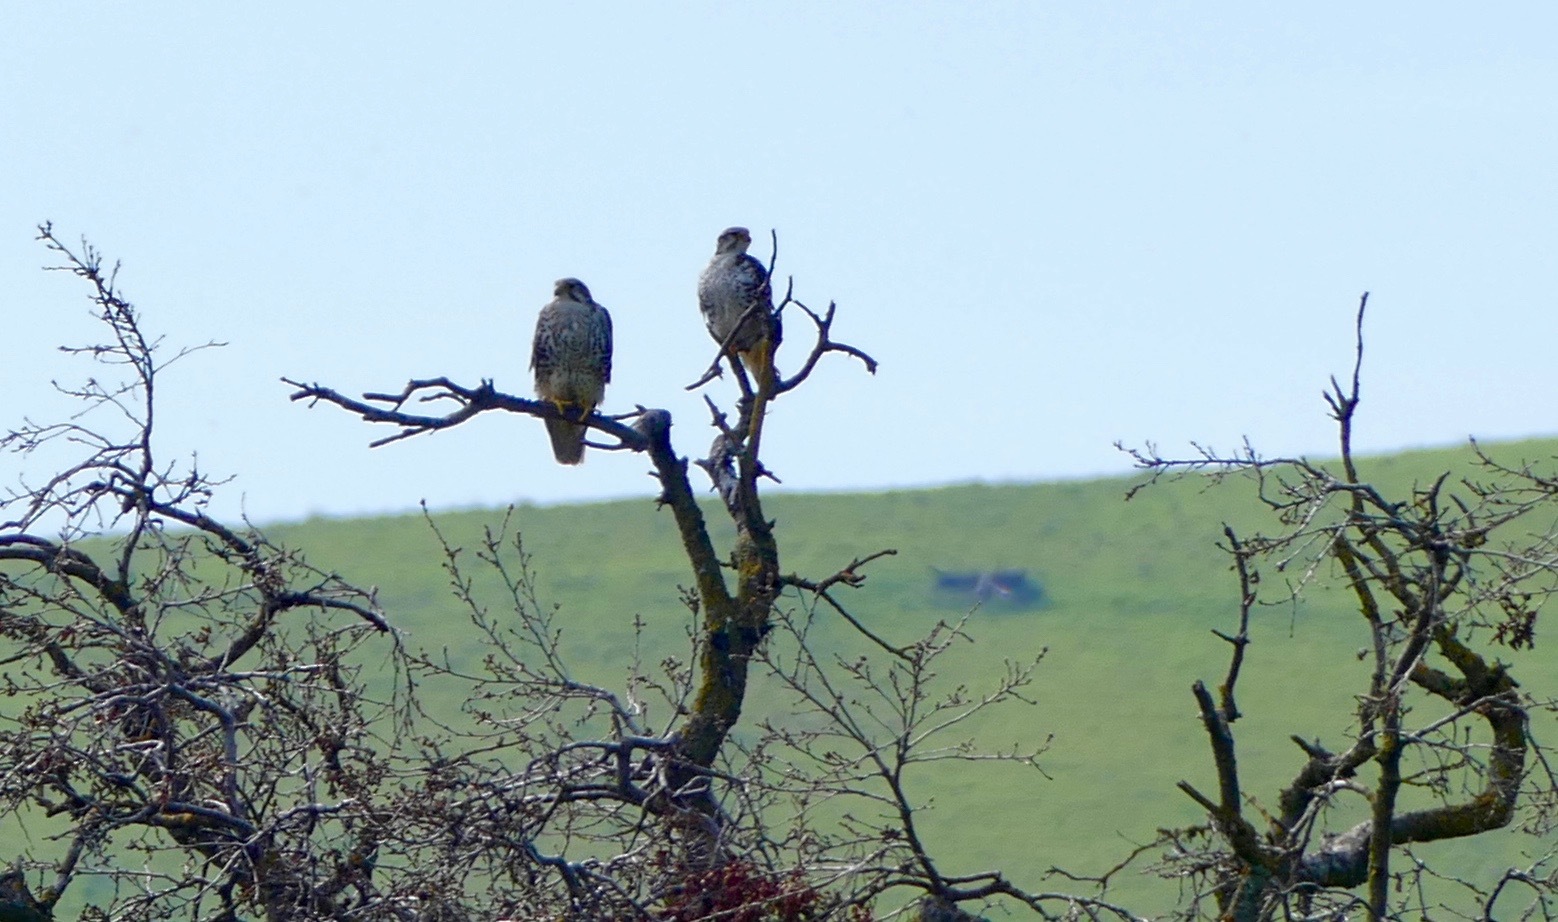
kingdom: Animalia
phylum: Chordata
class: Aves
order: Falconiformes
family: Falconidae
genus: Falco
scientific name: Falco mexicanus
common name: Prairie falcon
